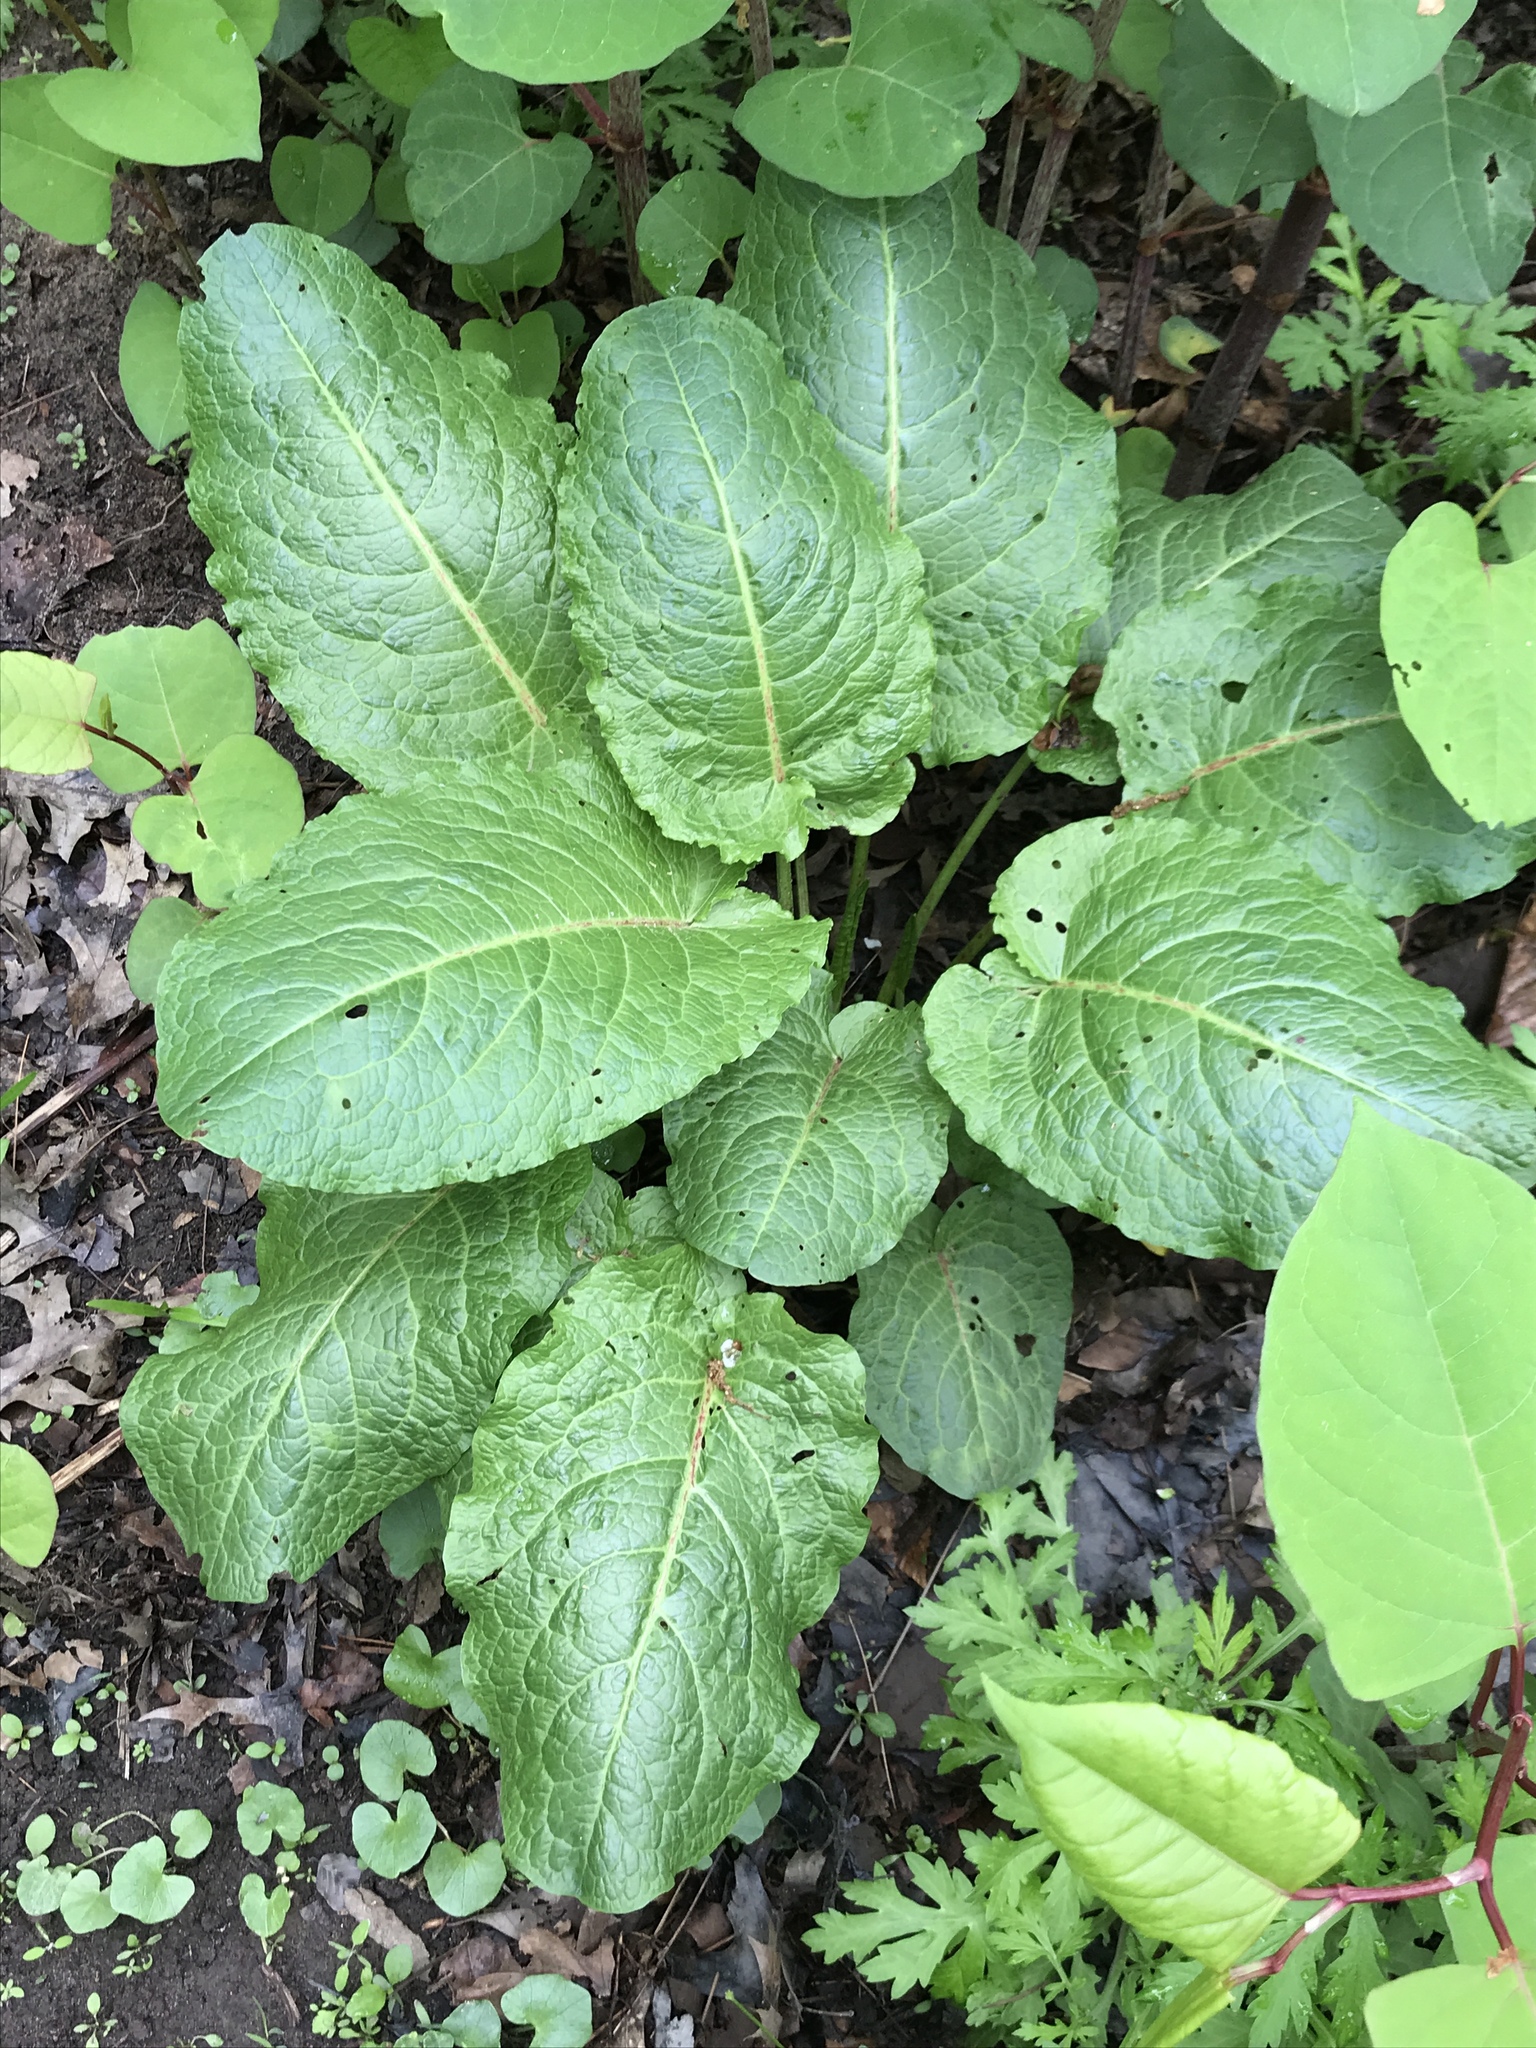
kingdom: Plantae
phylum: Tracheophyta
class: Magnoliopsida
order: Caryophyllales
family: Polygonaceae
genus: Rumex
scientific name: Rumex obtusifolius
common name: Bitter dock
